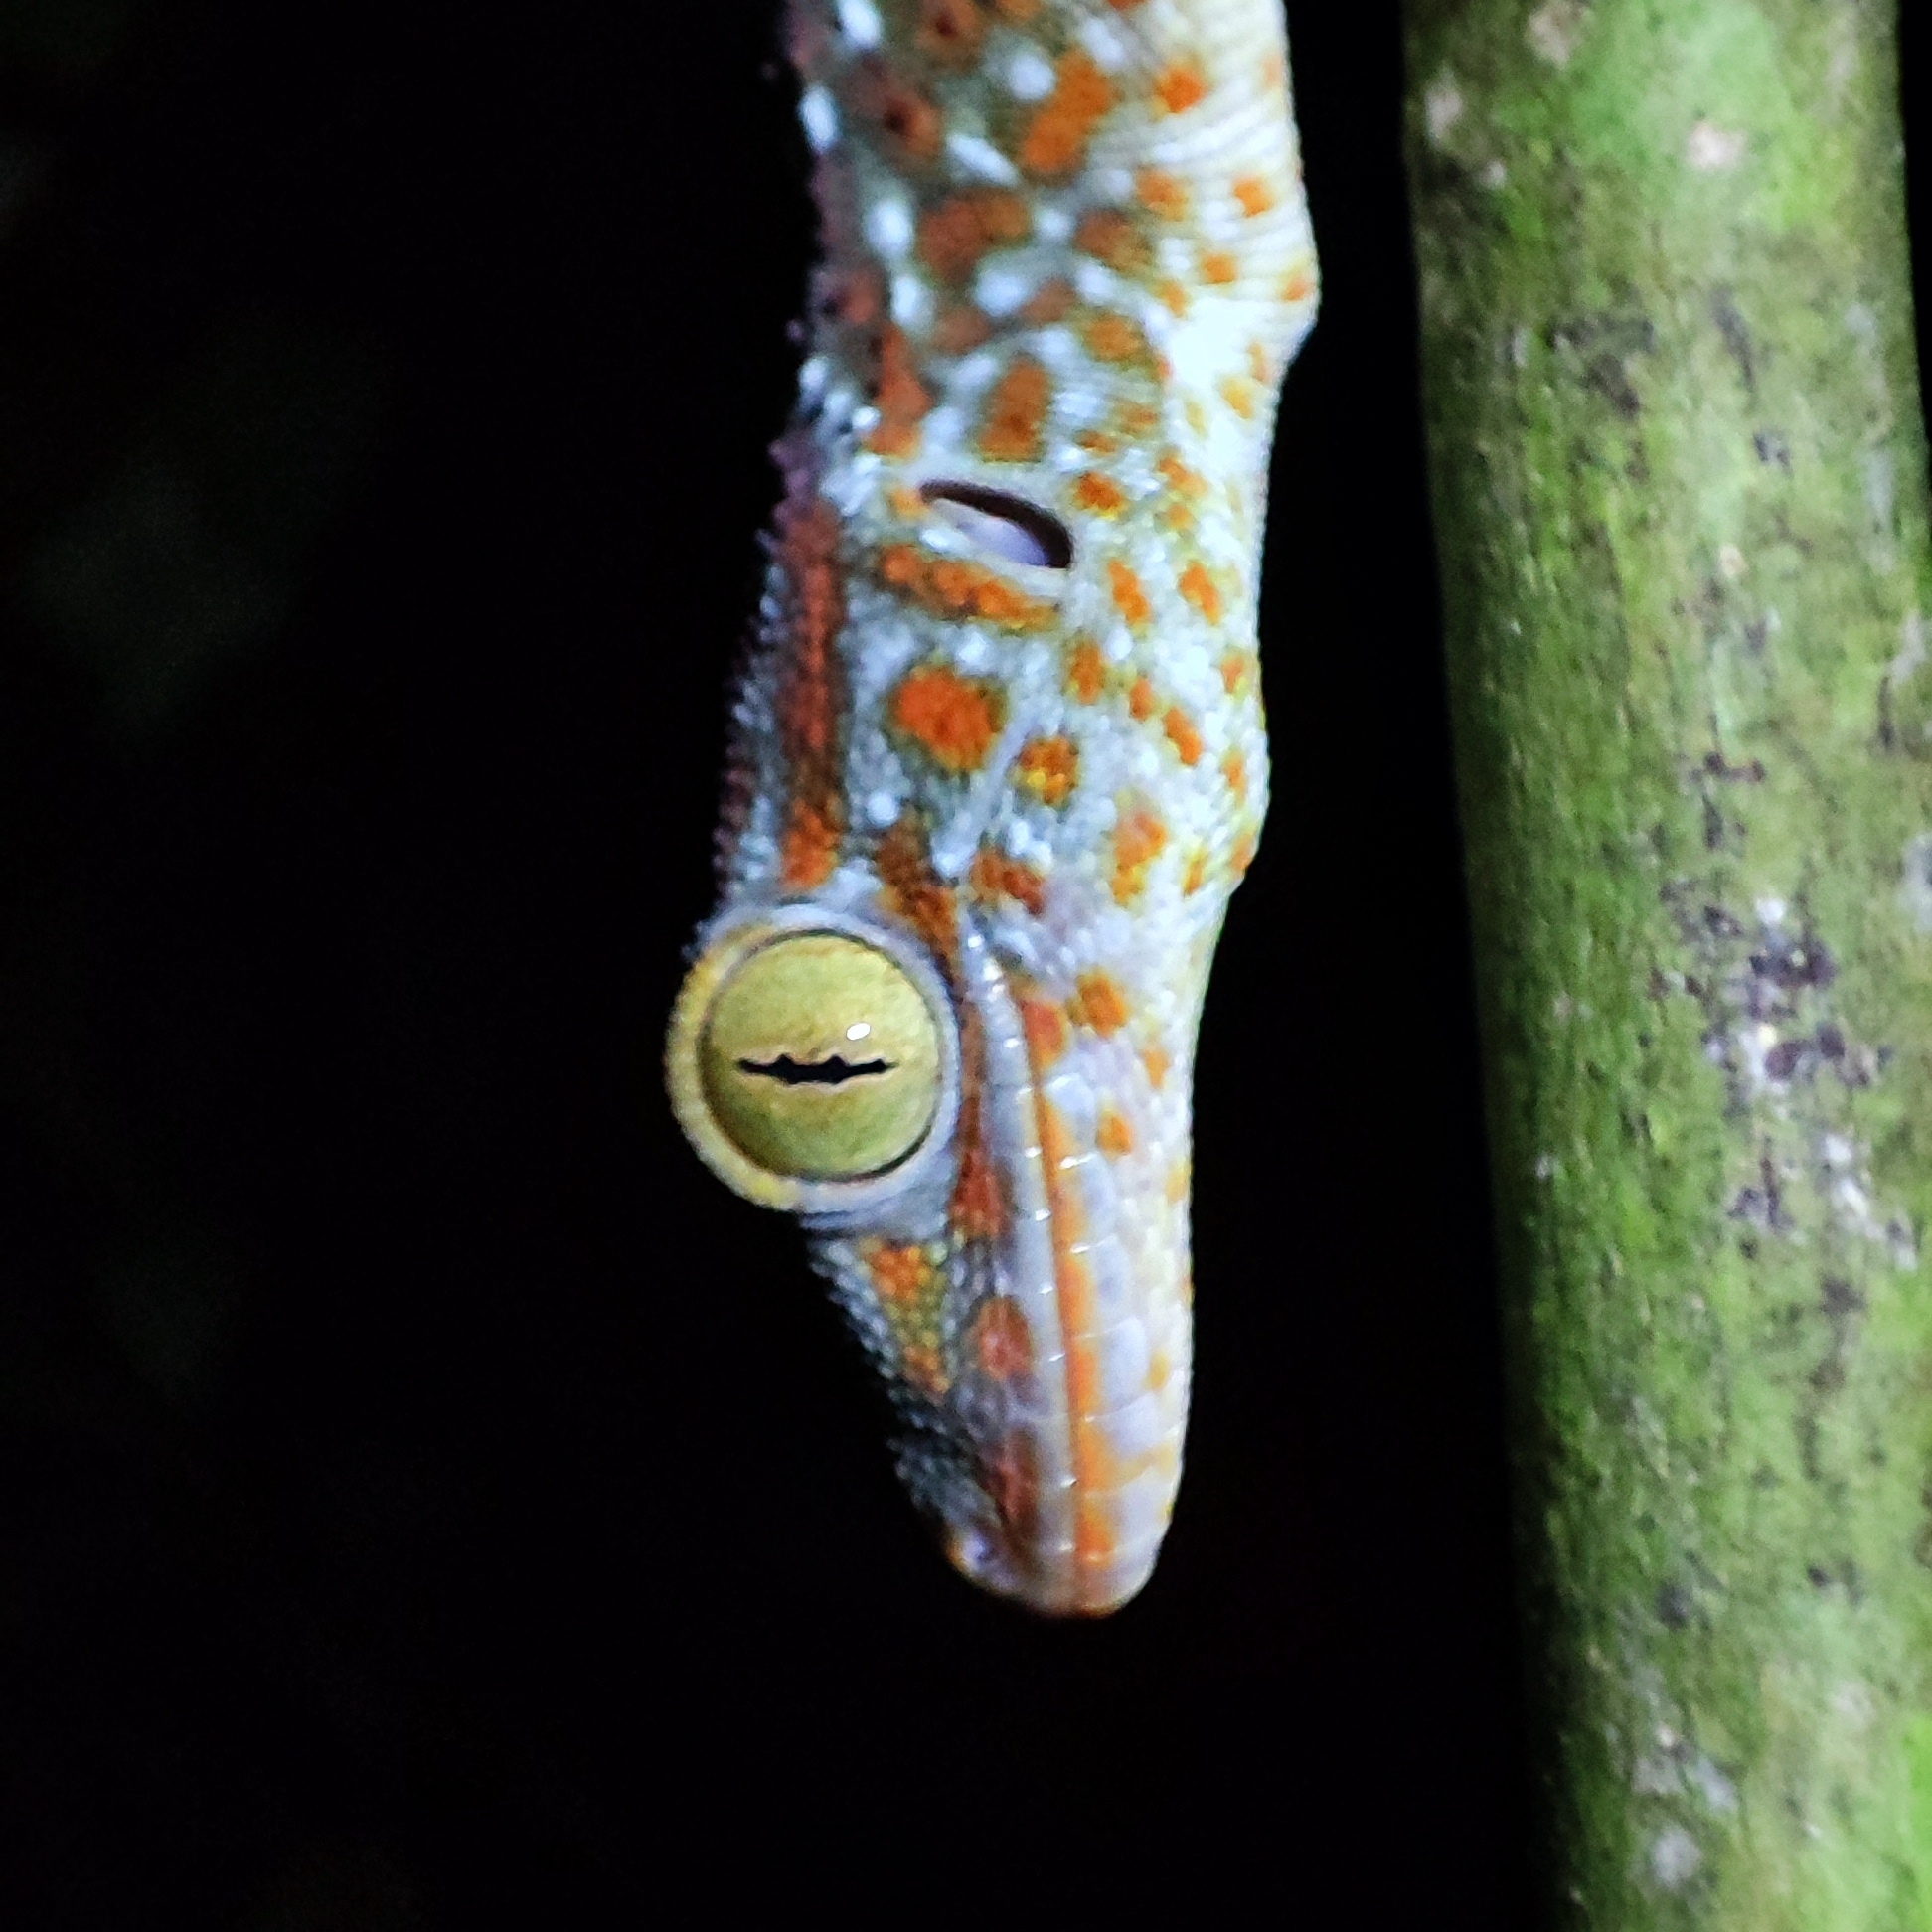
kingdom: Animalia
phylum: Chordata
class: Squamata
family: Gekkonidae
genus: Gekko
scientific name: Gekko gecko
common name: Tokay gecko
